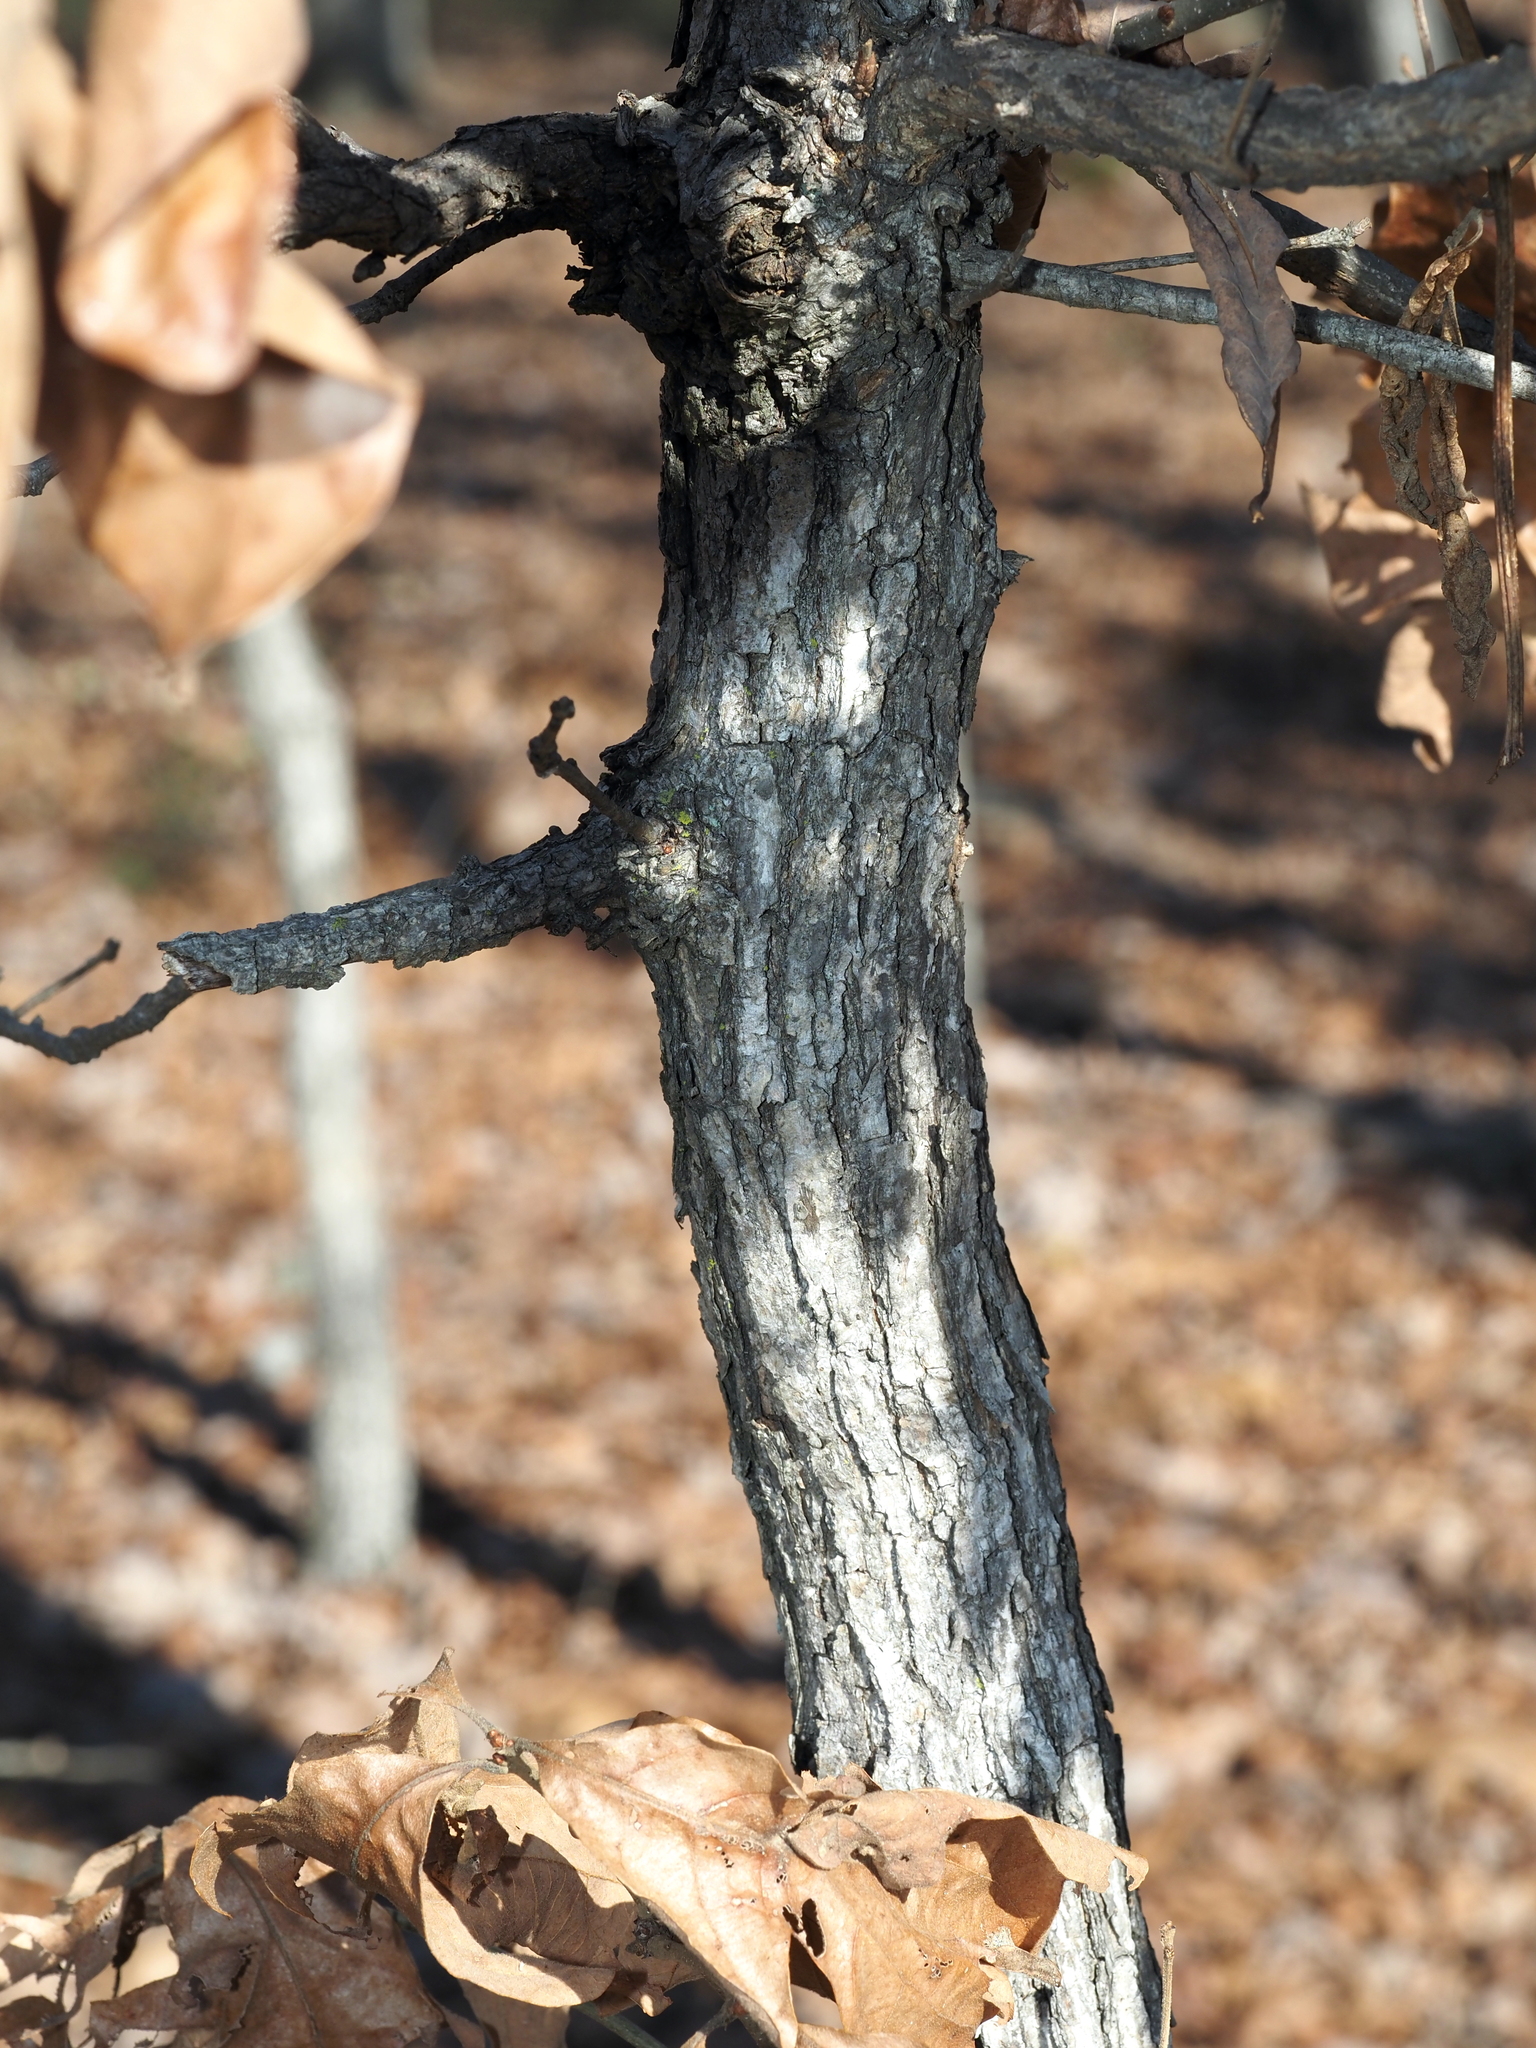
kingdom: Plantae
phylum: Tracheophyta
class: Magnoliopsida
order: Fagales
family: Fagaceae
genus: Quercus
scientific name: Quercus stellata
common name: Post oak
